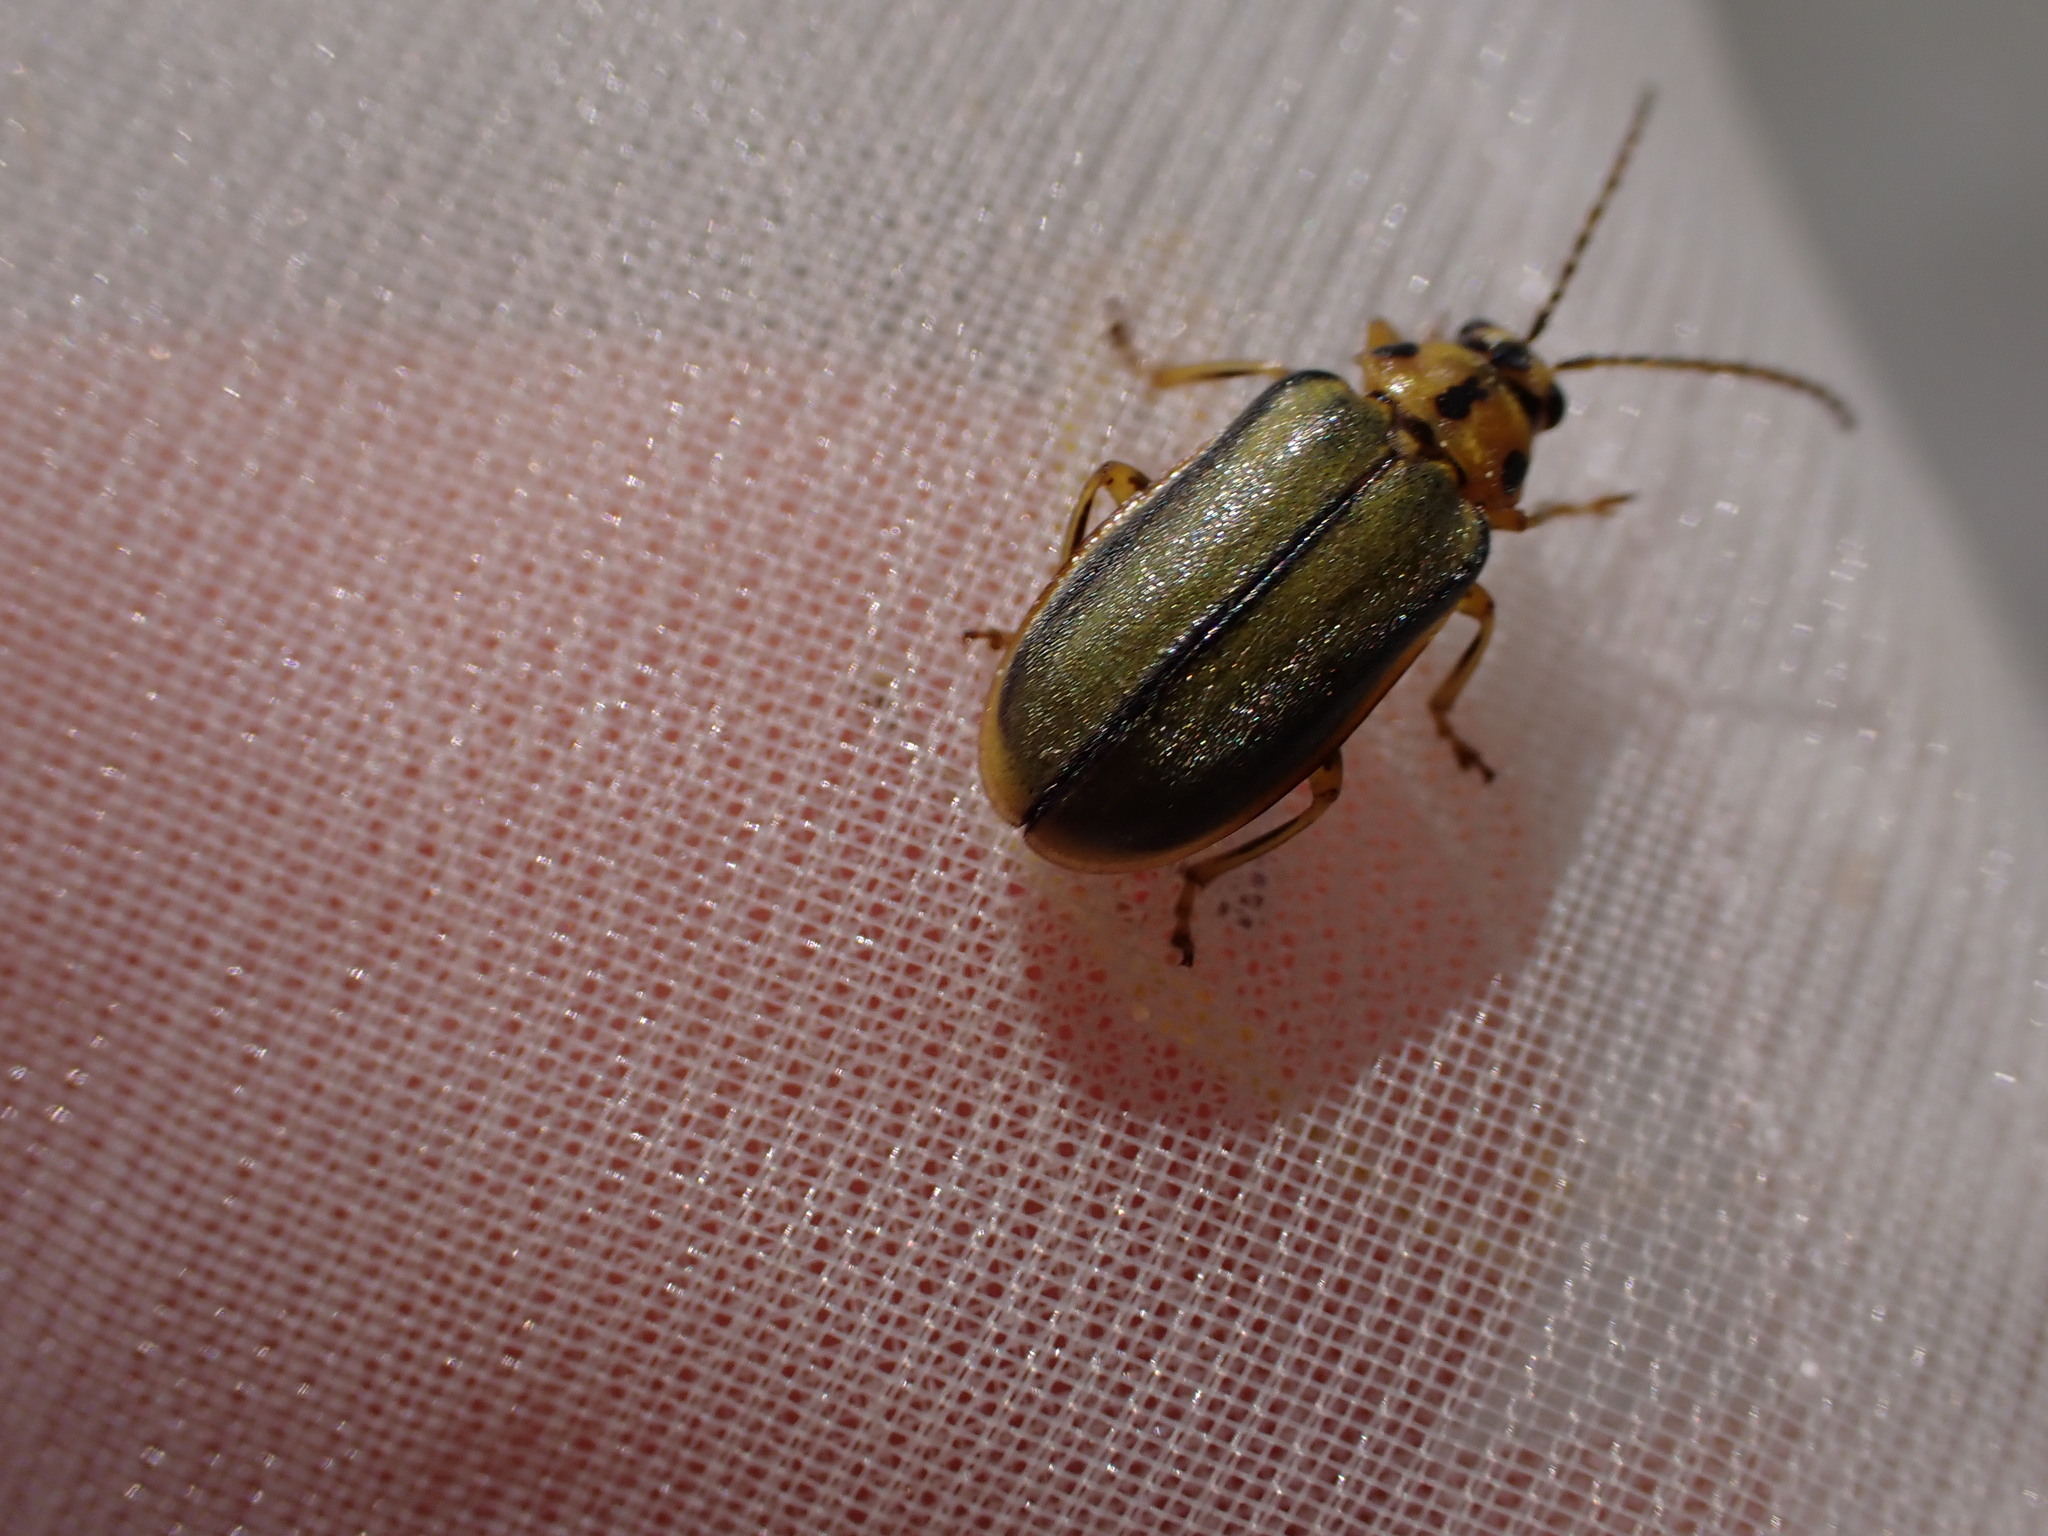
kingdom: Animalia
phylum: Arthropoda
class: Insecta
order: Coleoptera
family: Chrysomelidae
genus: Xanthogaleruca
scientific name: Xanthogaleruca luteola
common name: Elm leaf beetle
